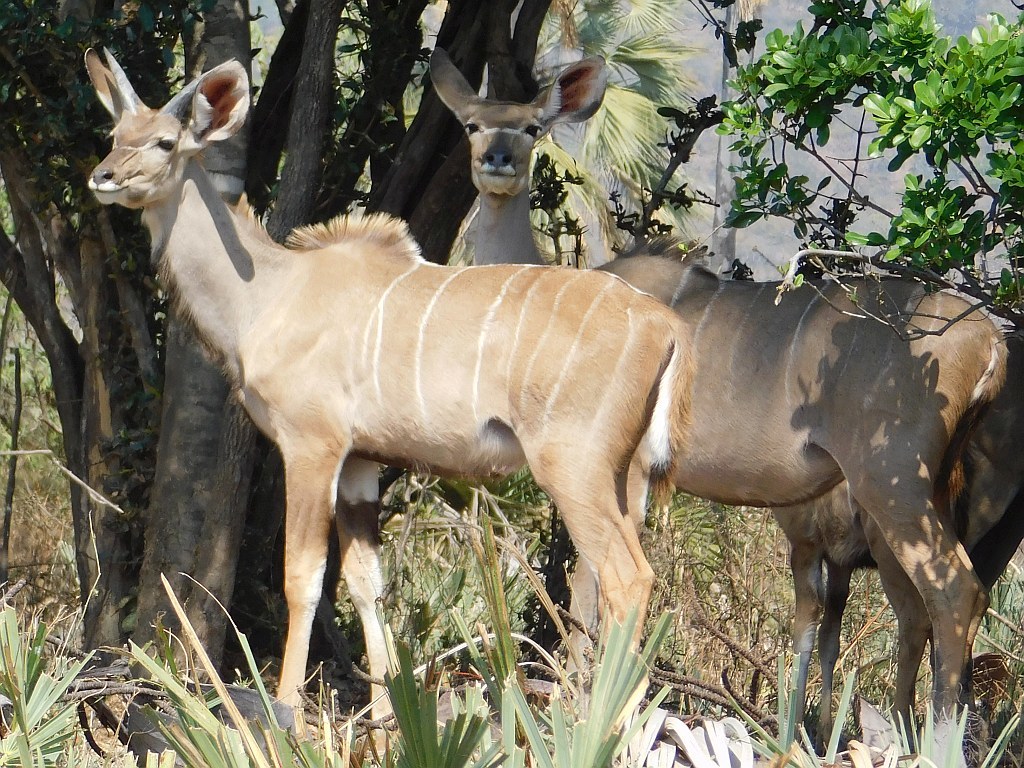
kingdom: Animalia
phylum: Chordata
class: Mammalia
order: Artiodactyla
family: Bovidae
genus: Tragelaphus
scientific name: Tragelaphus strepsiceros
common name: Greater kudu
